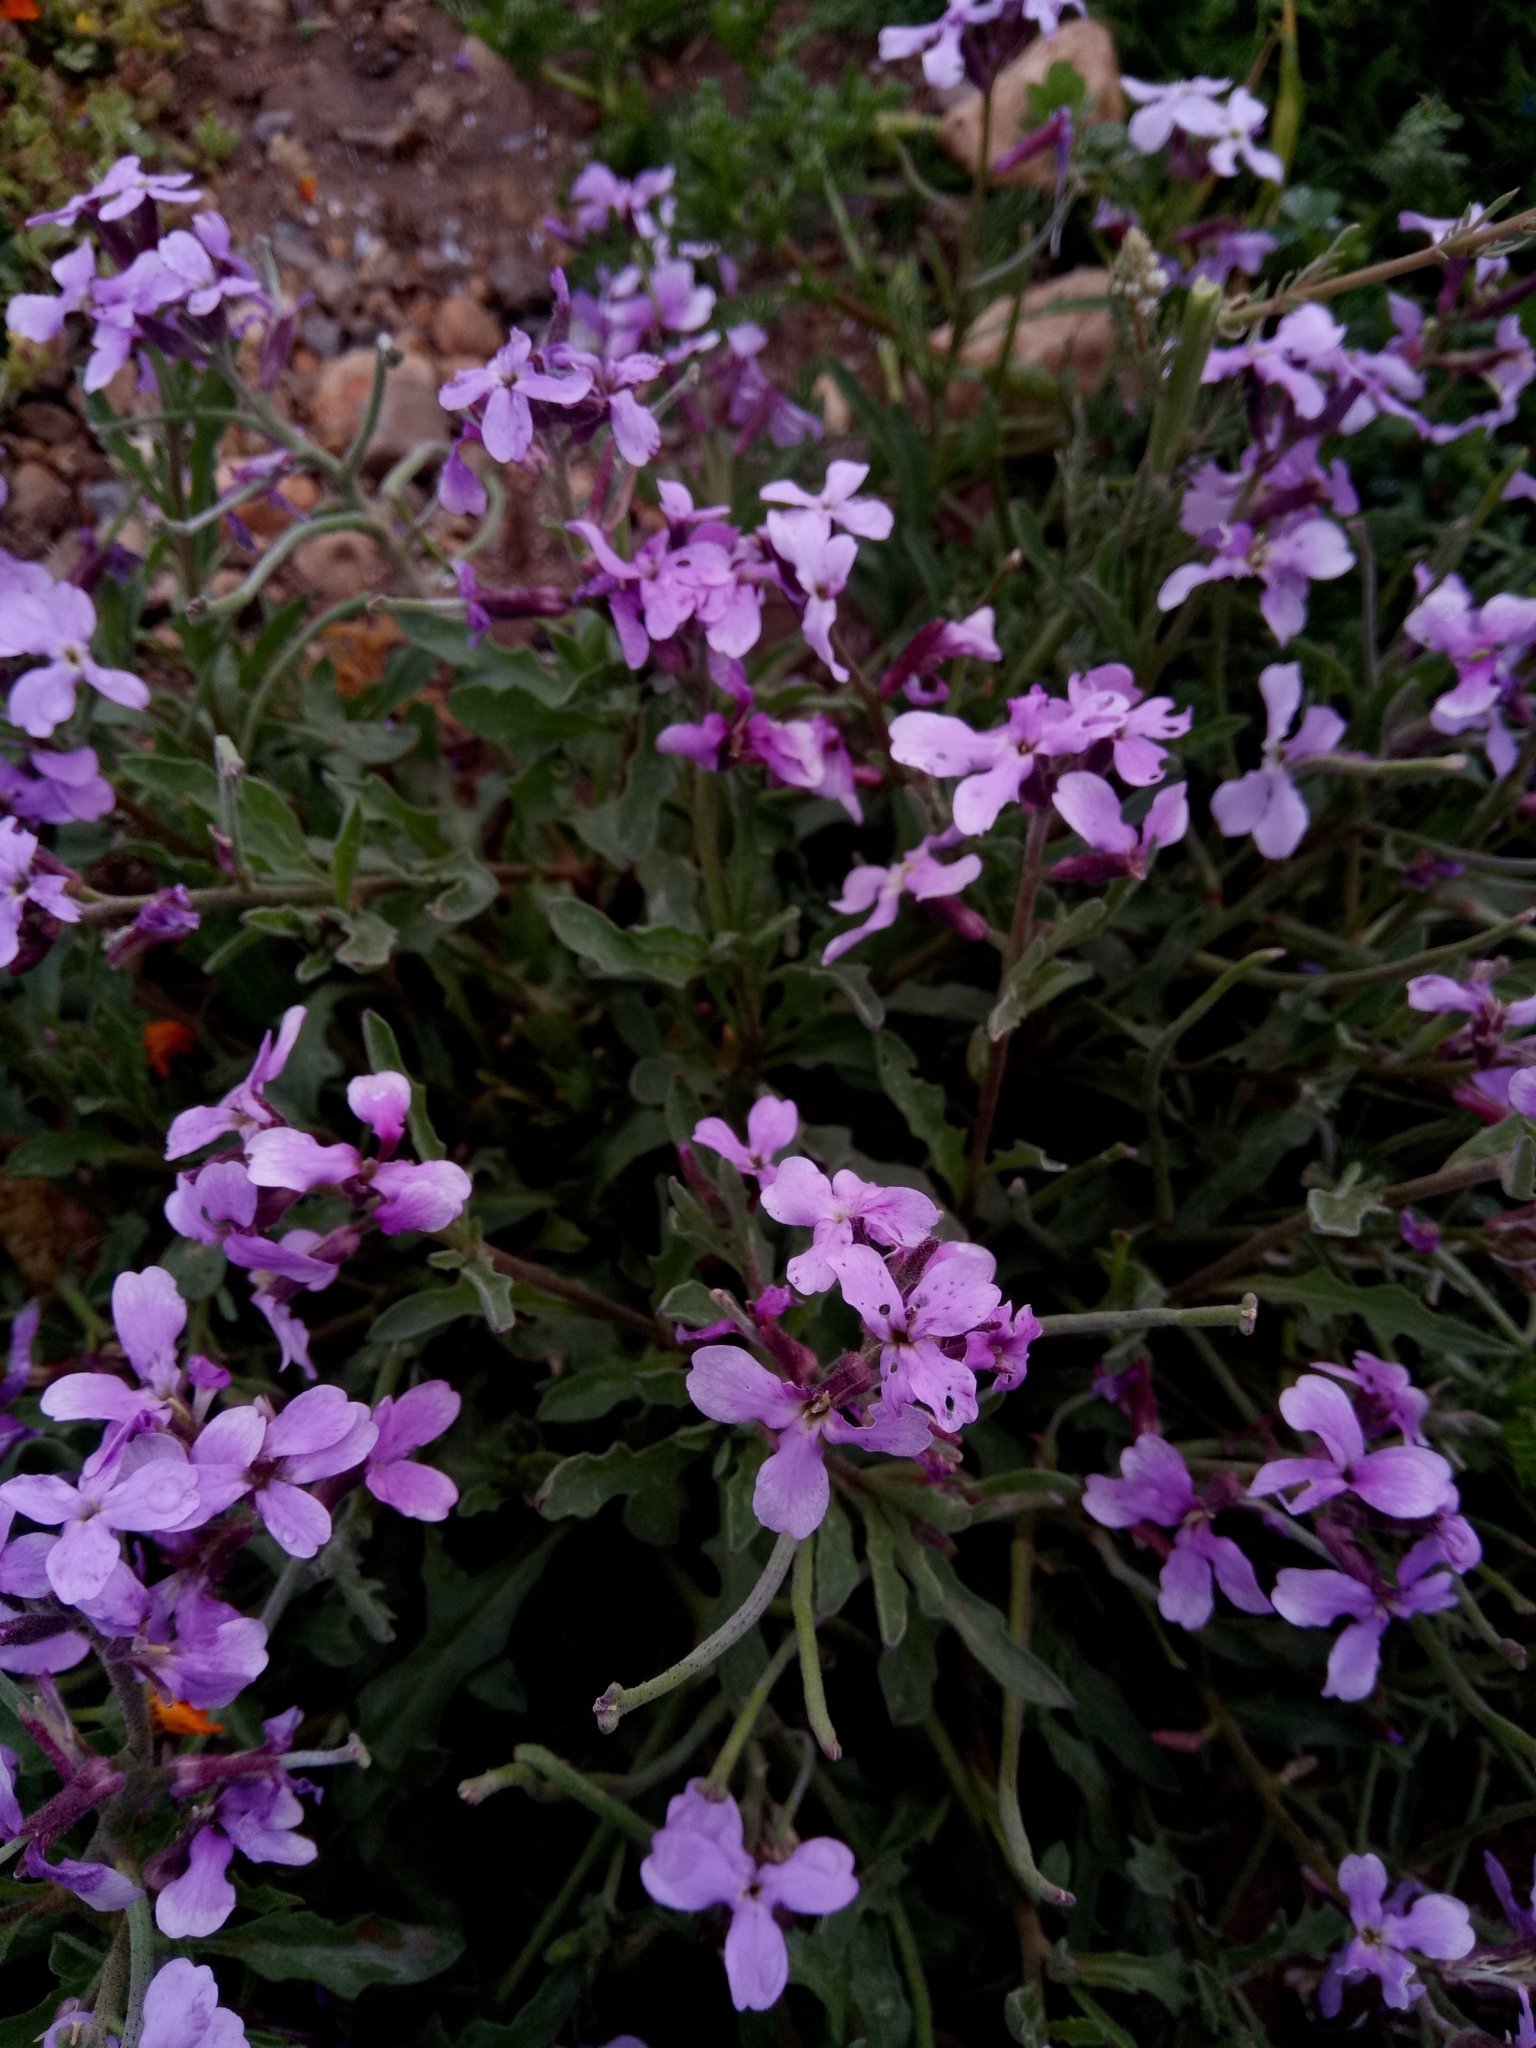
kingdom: Plantae
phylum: Tracheophyta
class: Magnoliopsida
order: Brassicales
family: Brassicaceae
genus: Matthiola
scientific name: Matthiola lunata
